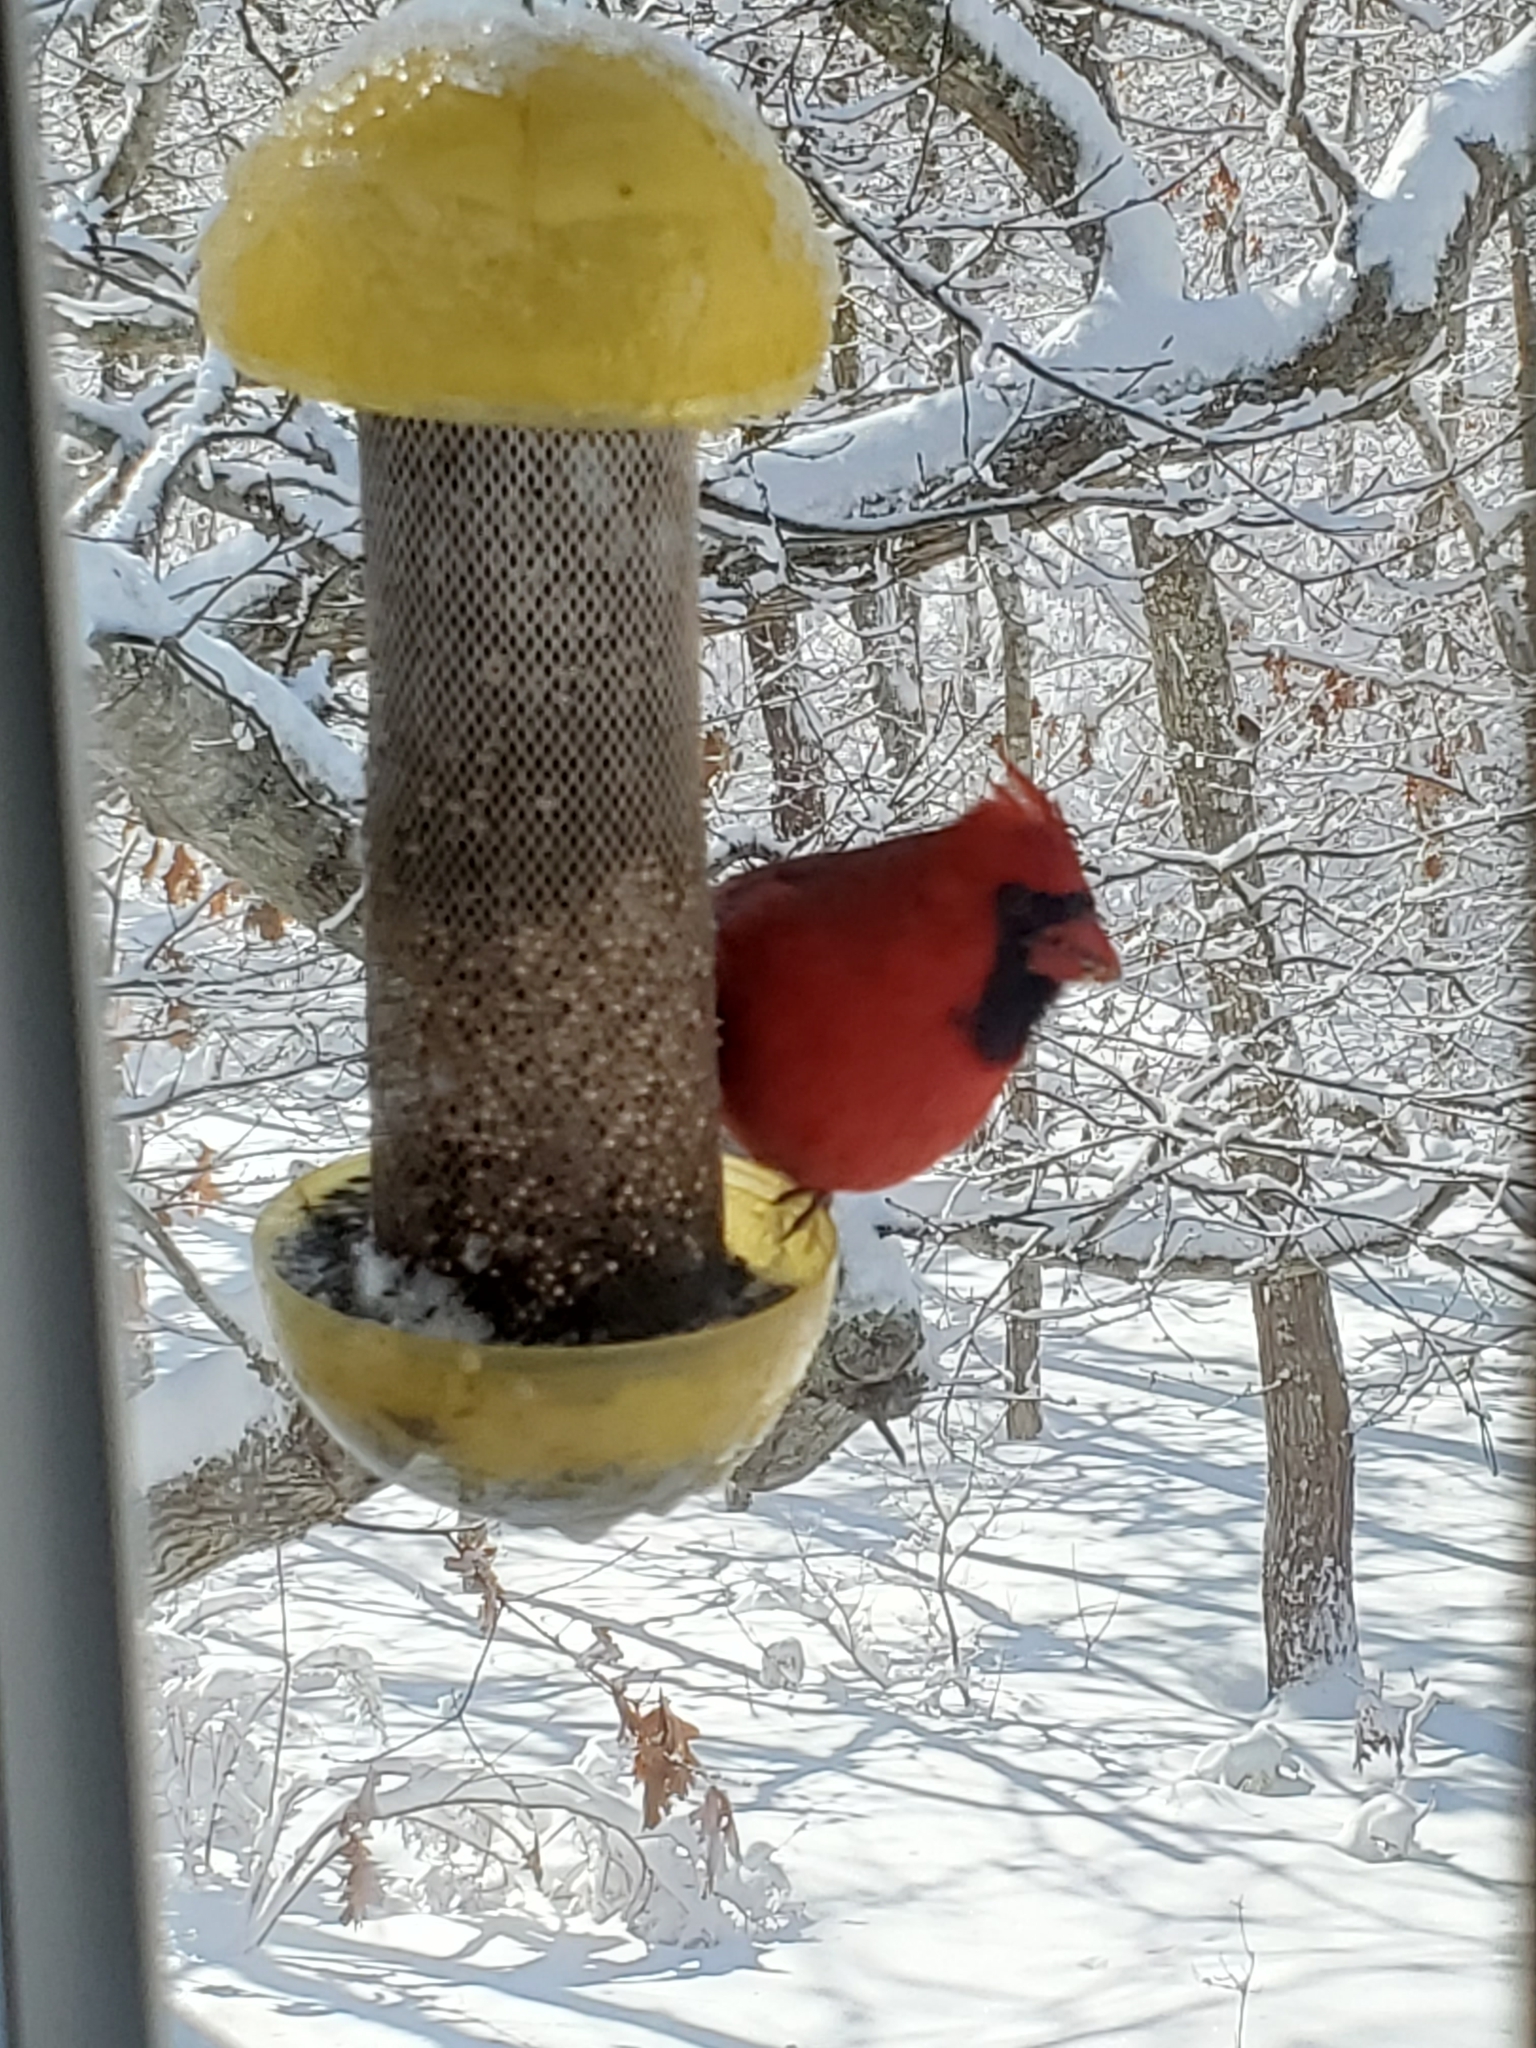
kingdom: Animalia
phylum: Chordata
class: Aves
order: Passeriformes
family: Cardinalidae
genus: Cardinalis
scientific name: Cardinalis cardinalis
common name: Northern cardinal
